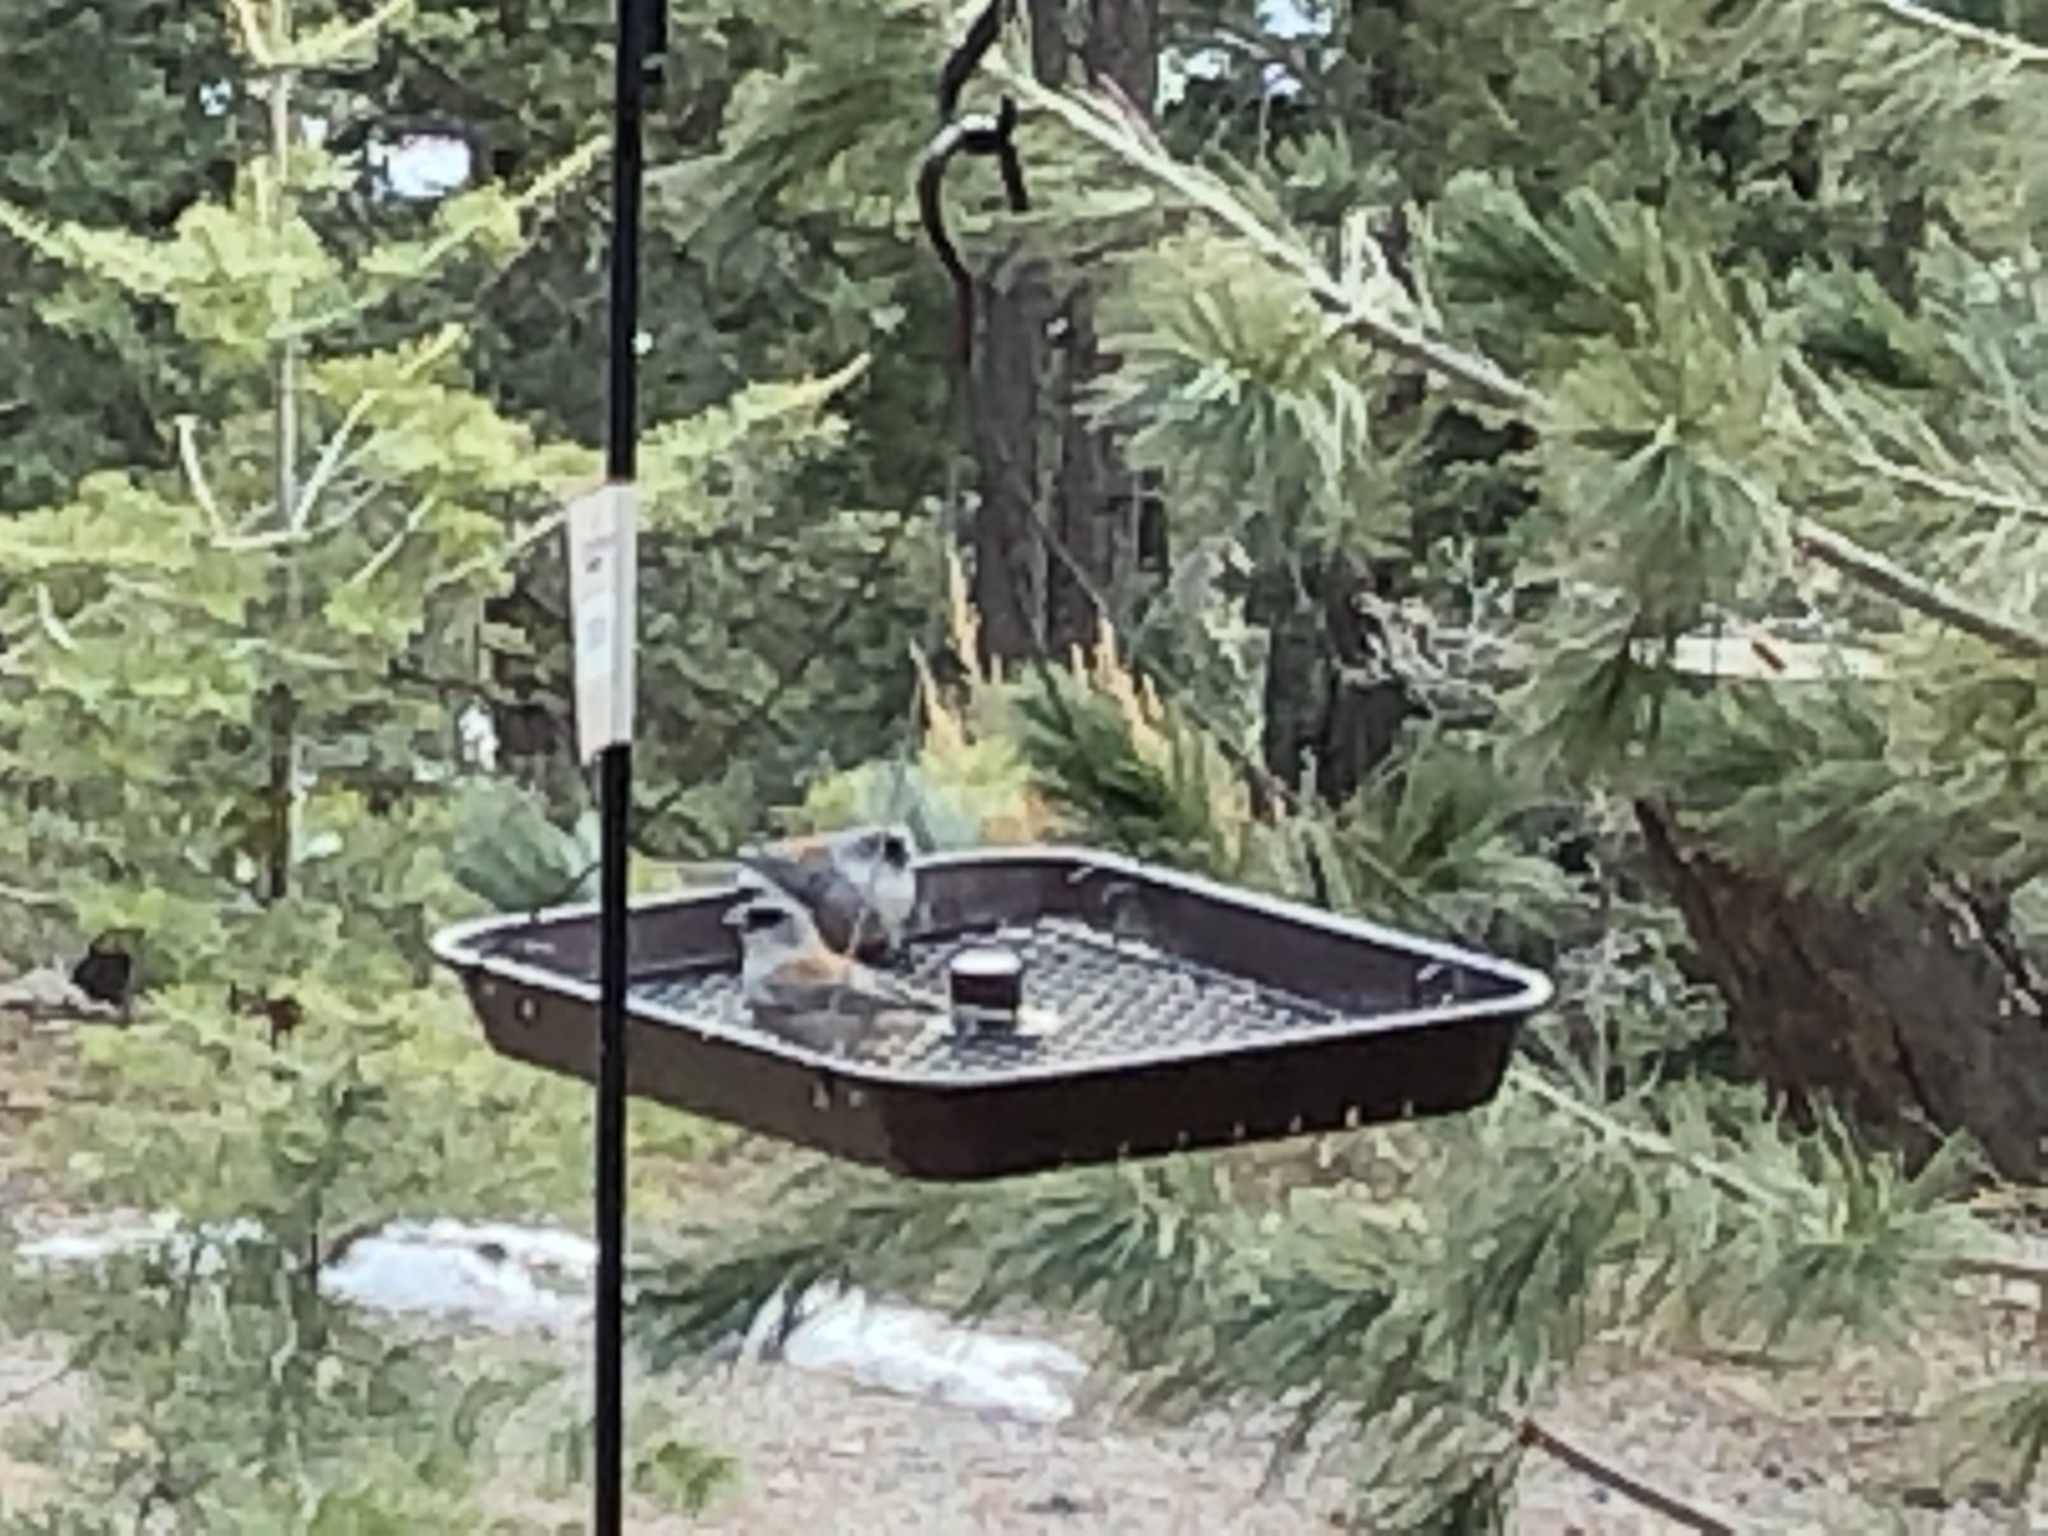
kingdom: Animalia
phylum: Chordata
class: Aves
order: Passeriformes
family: Passerellidae
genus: Junco
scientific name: Junco hyemalis
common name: Dark-eyed junco
